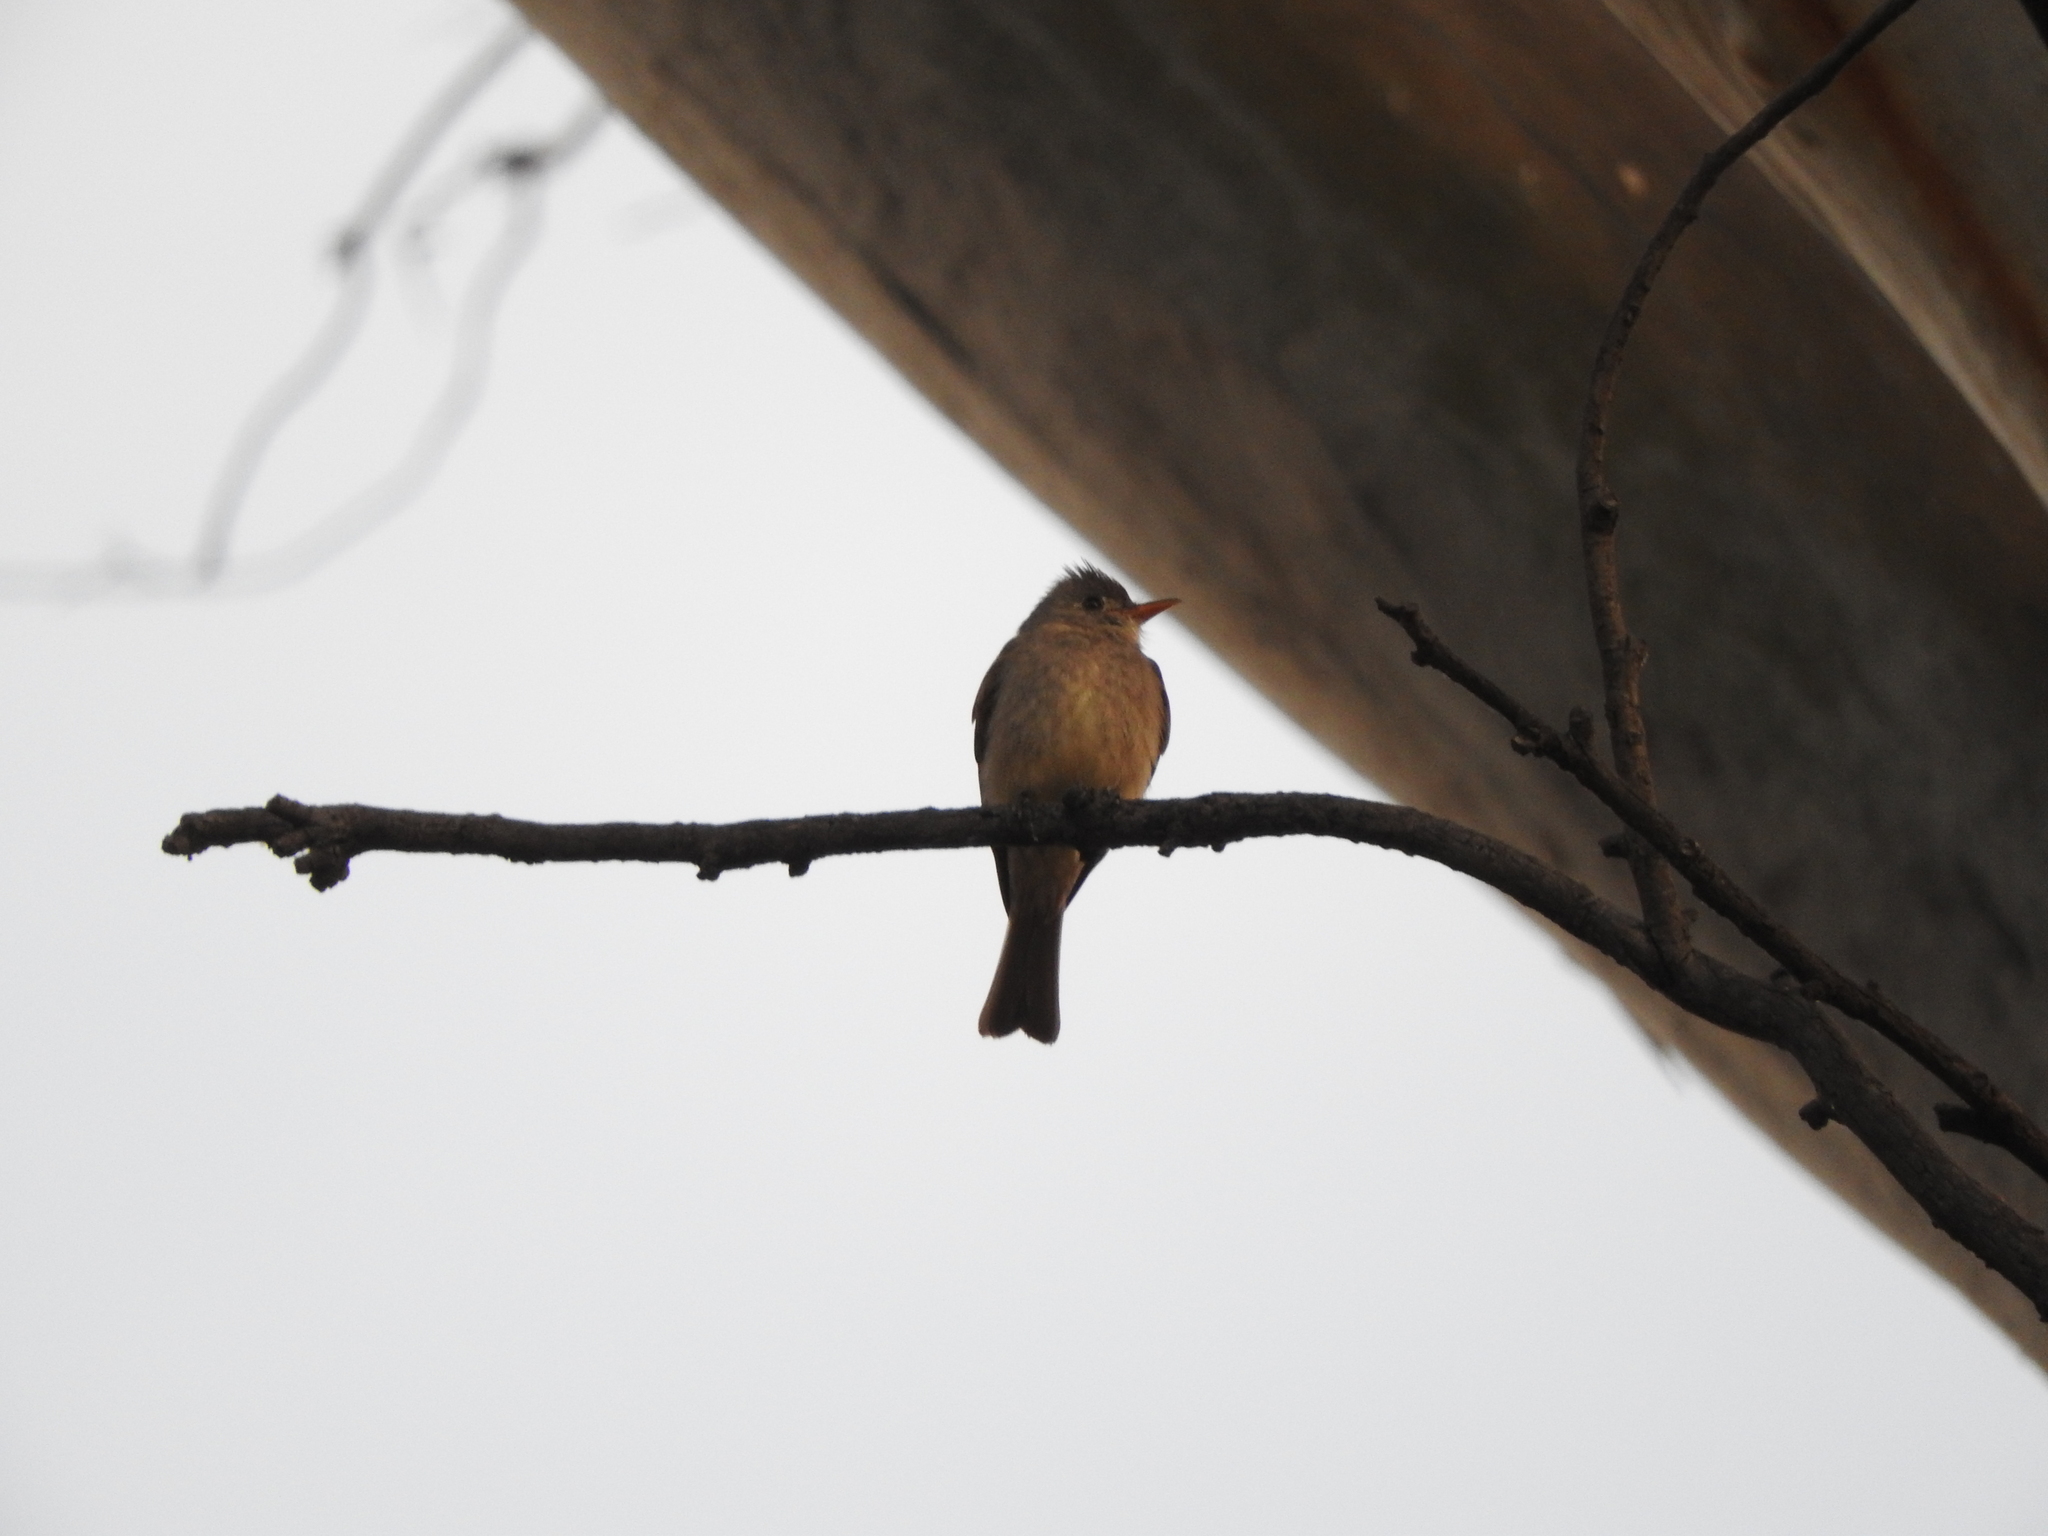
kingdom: Animalia
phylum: Chordata
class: Aves
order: Passeriformes
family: Tyrannidae
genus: Contopus
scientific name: Contopus pertinax
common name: Greater pewee
